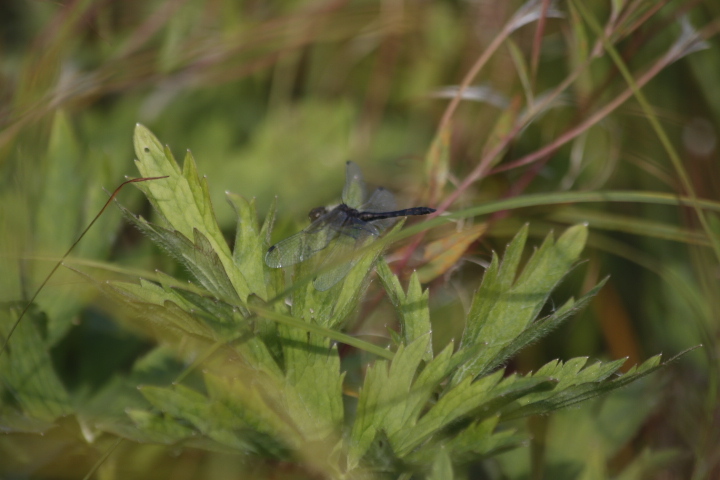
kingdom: Animalia
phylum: Arthropoda
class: Insecta
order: Odonata
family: Libellulidae
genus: Sympetrum
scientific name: Sympetrum danae
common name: Black darter
